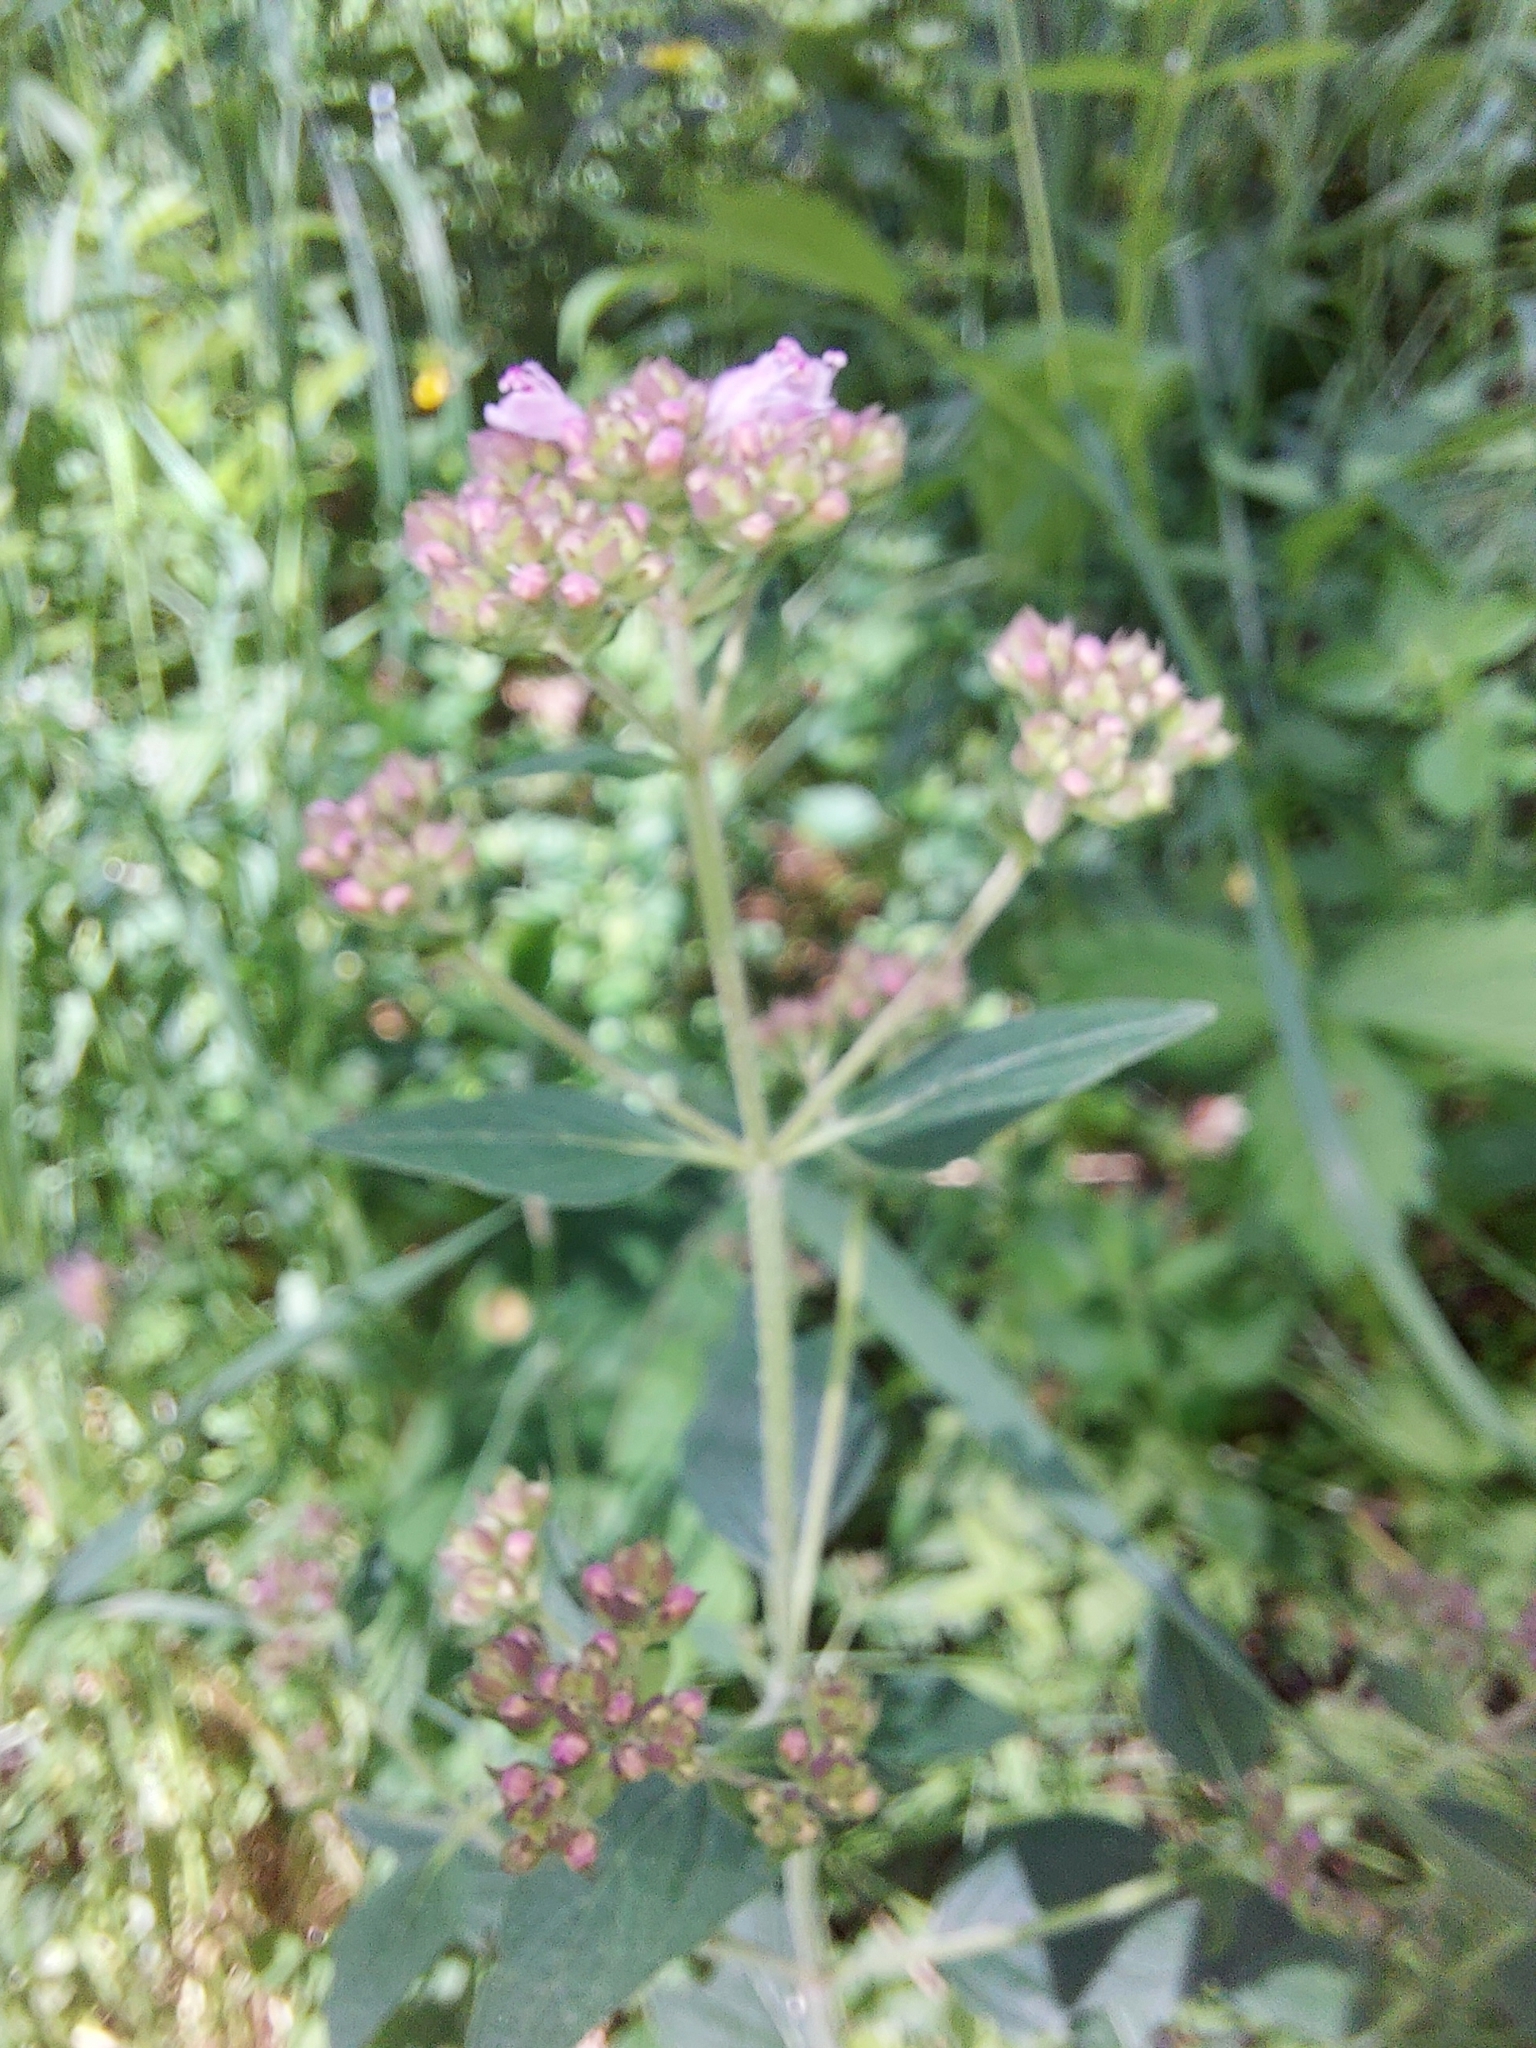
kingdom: Plantae
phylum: Tracheophyta
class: Magnoliopsida
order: Lamiales
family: Lamiaceae
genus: Origanum
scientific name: Origanum vulgare
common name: Wild marjoram
